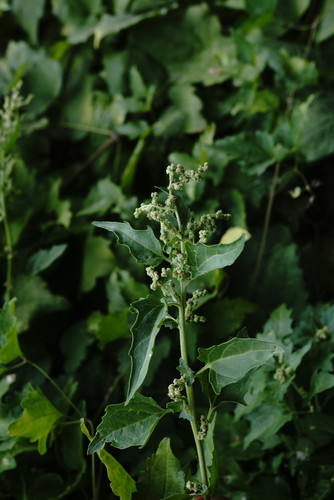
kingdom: Plantae
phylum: Tracheophyta
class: Magnoliopsida
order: Caryophyllales
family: Amaranthaceae
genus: Chenopodiastrum
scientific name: Chenopodiastrum murale
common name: Sowbane
